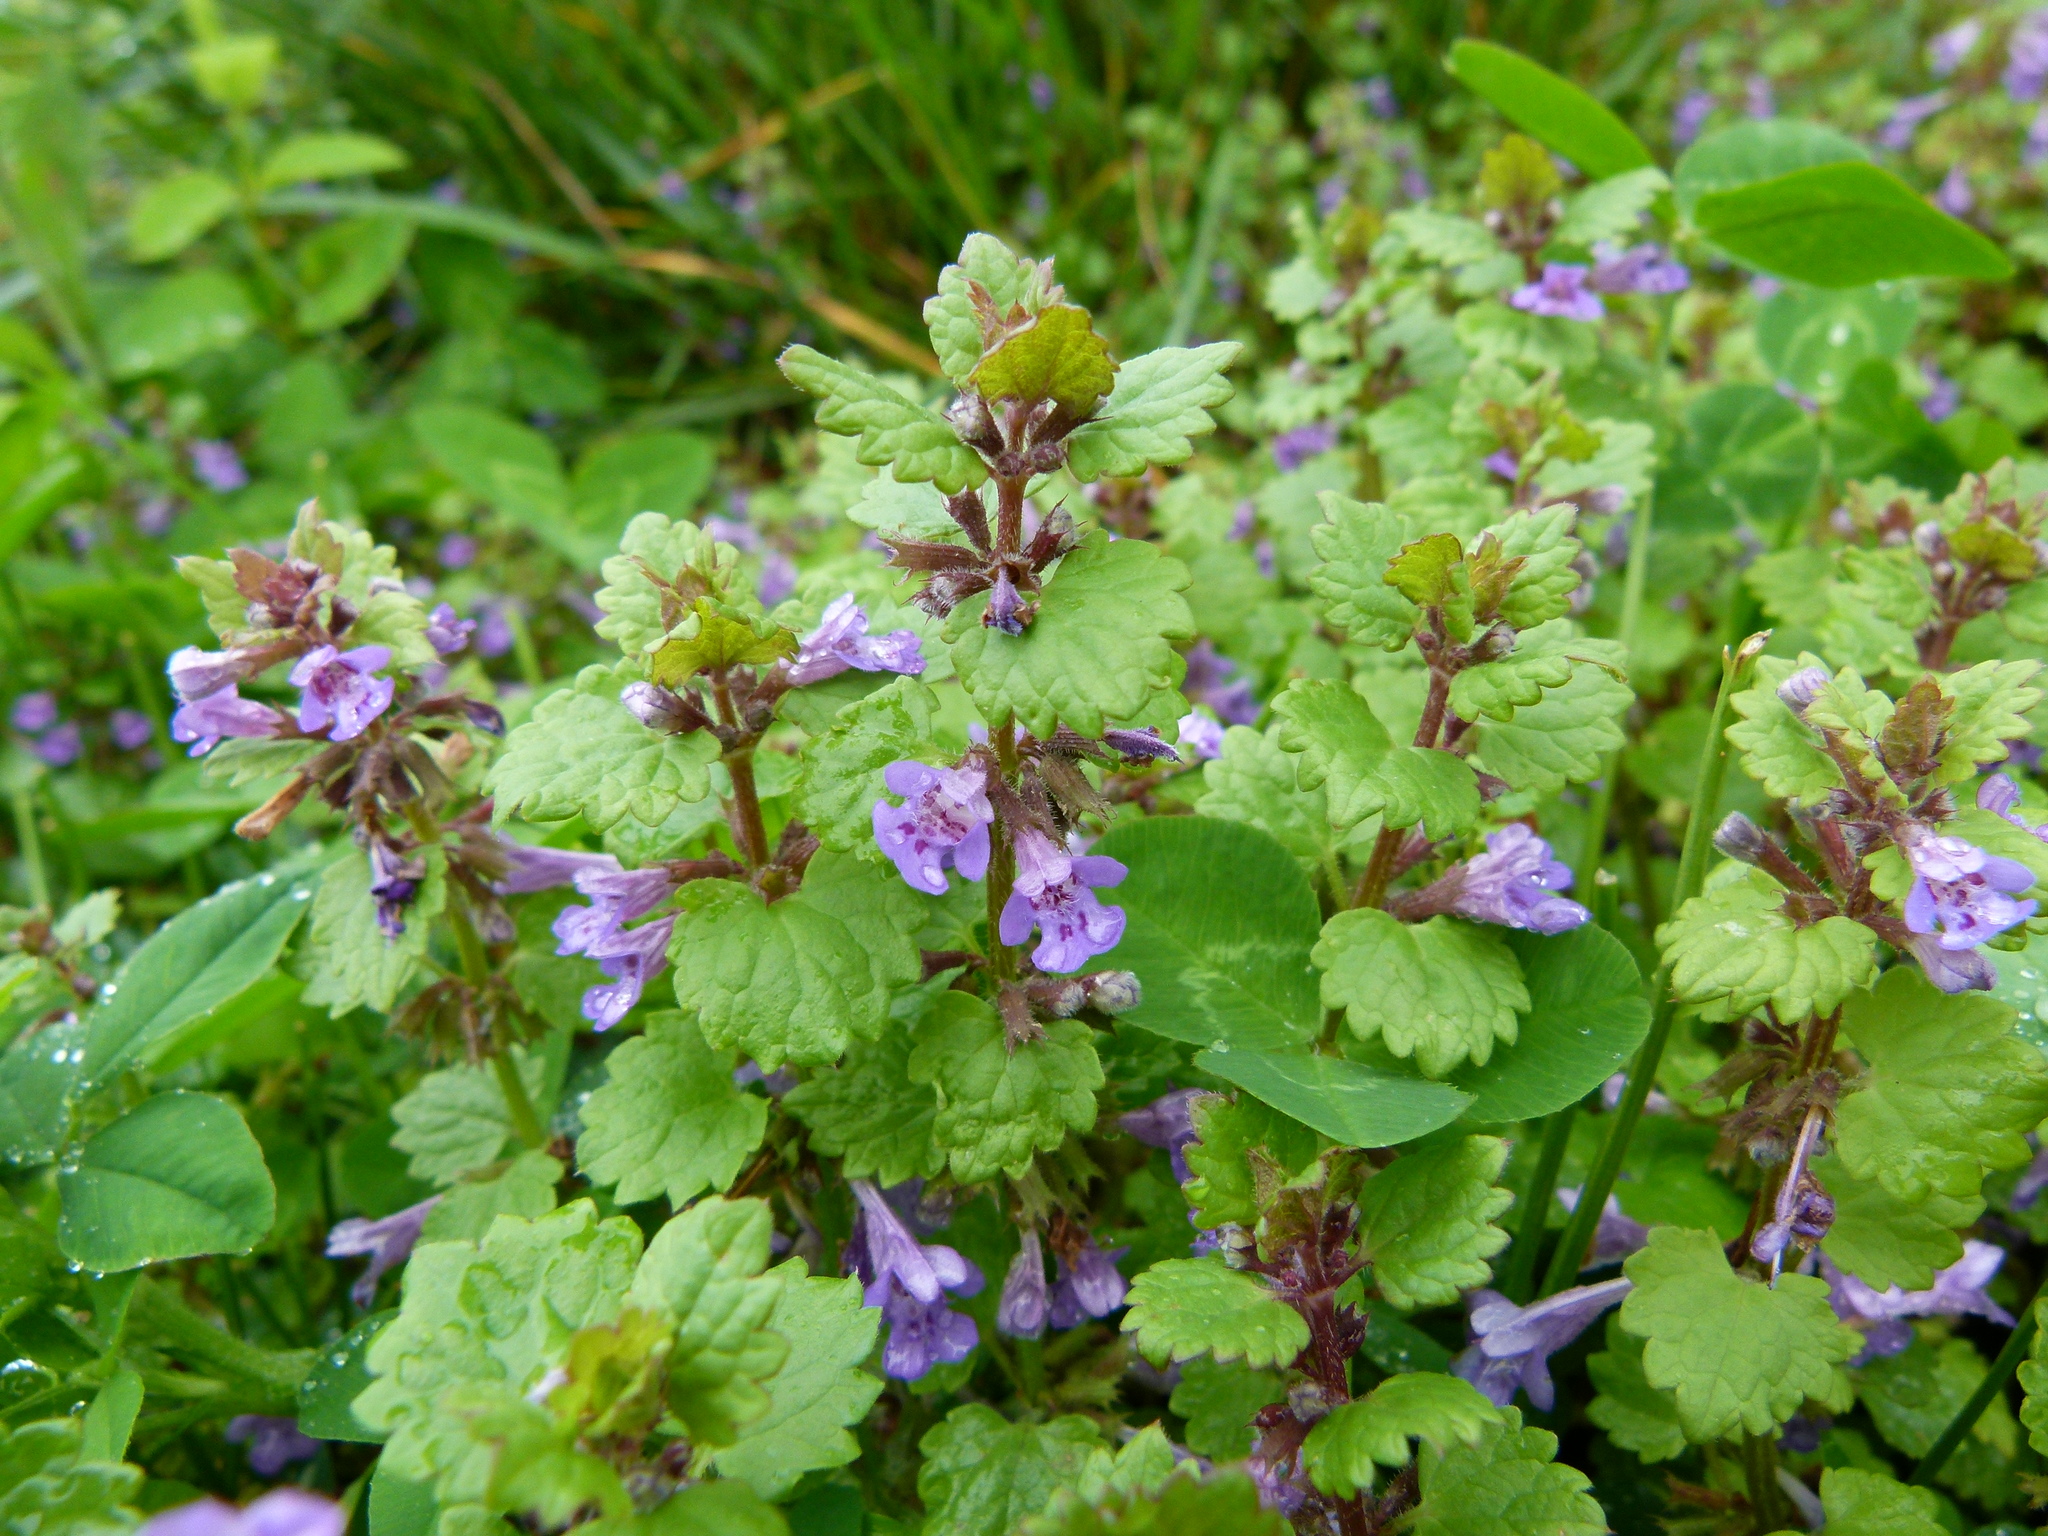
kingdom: Plantae
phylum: Tracheophyta
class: Magnoliopsida
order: Lamiales
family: Lamiaceae
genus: Glechoma
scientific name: Glechoma hederacea
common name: Ground ivy
